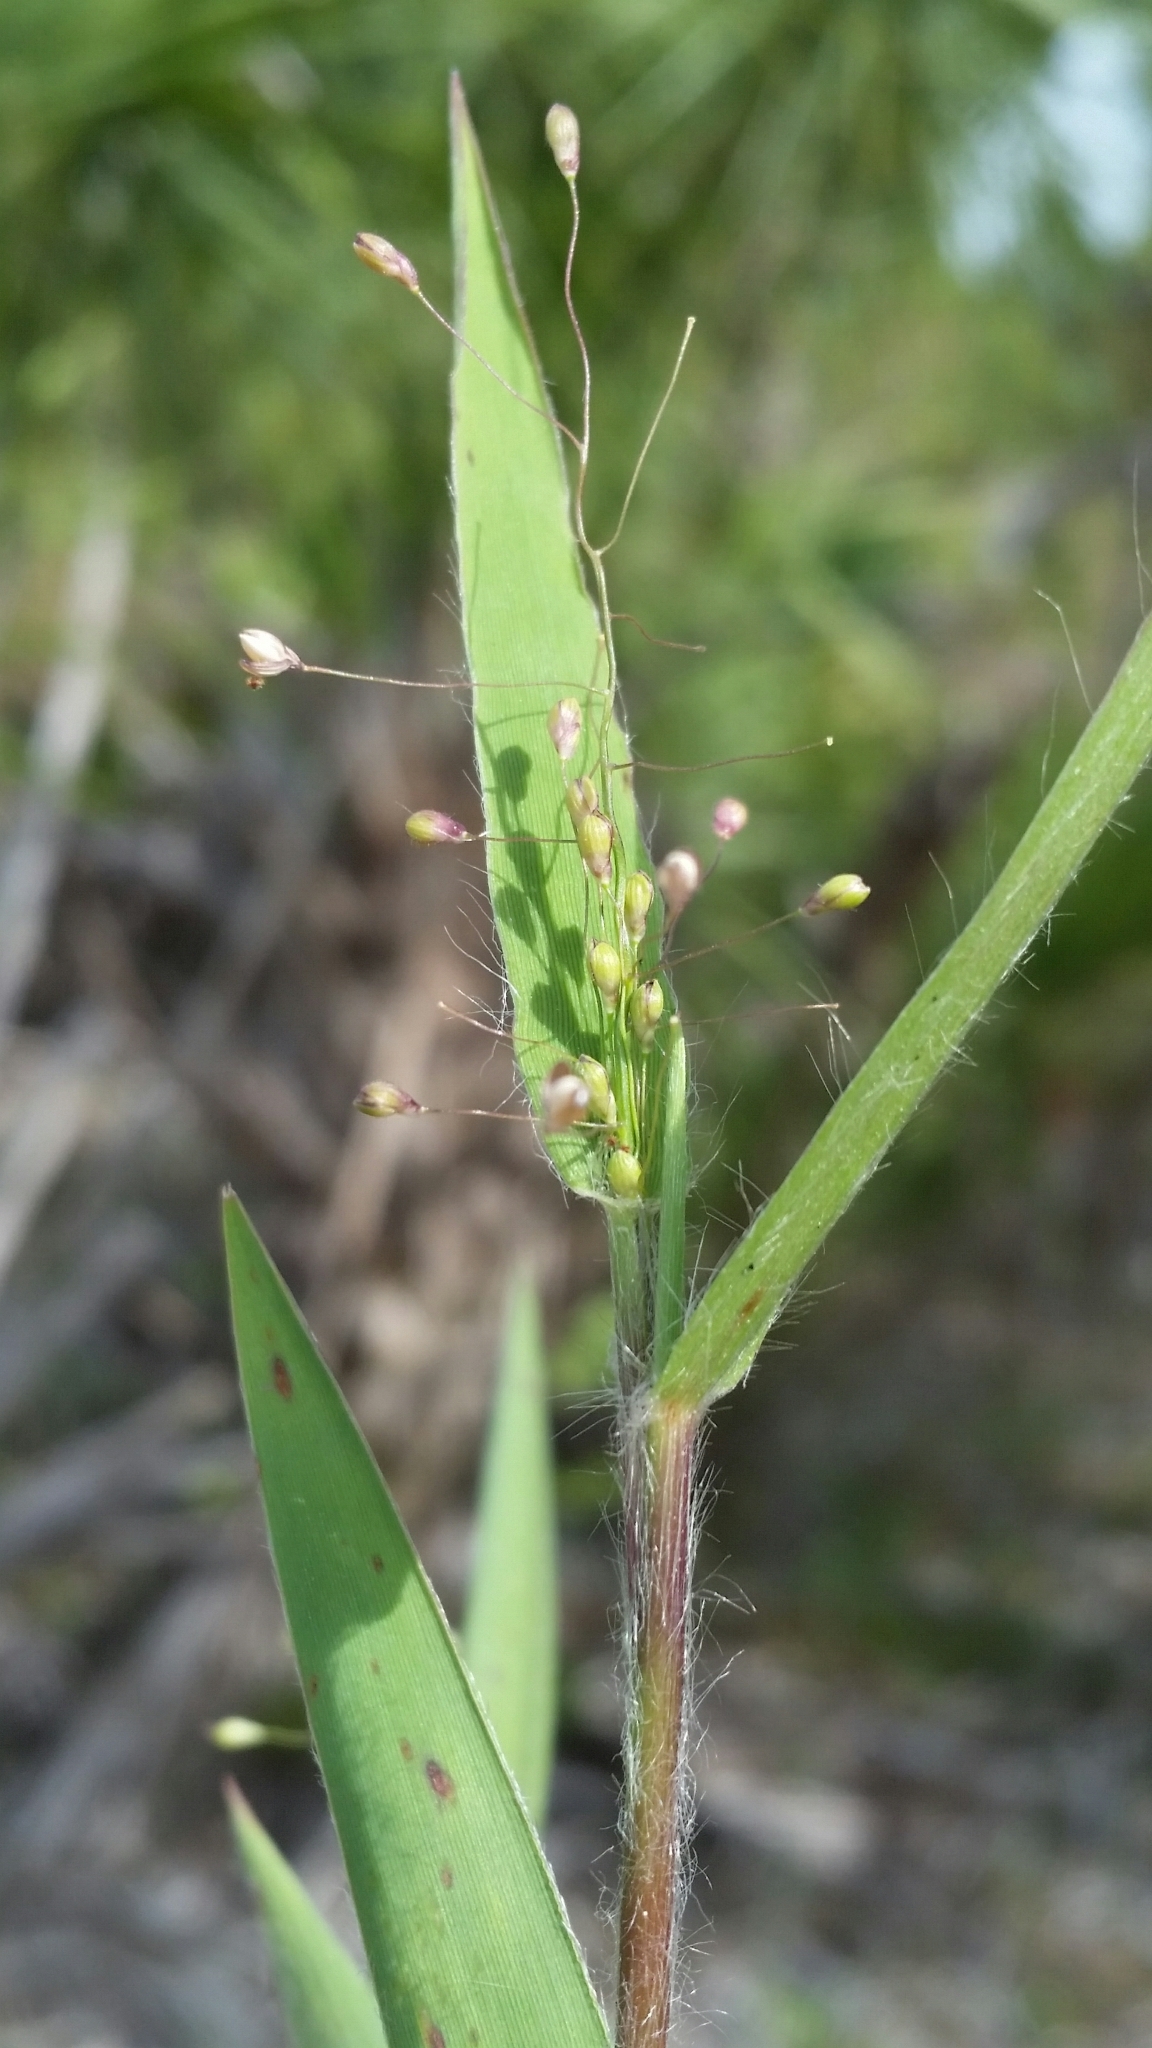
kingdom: Plantae
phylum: Tracheophyta
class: Liliopsida
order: Poales
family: Poaceae
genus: Dichanthelium
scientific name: Dichanthelium commonsianum
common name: Commons' panicgrass
